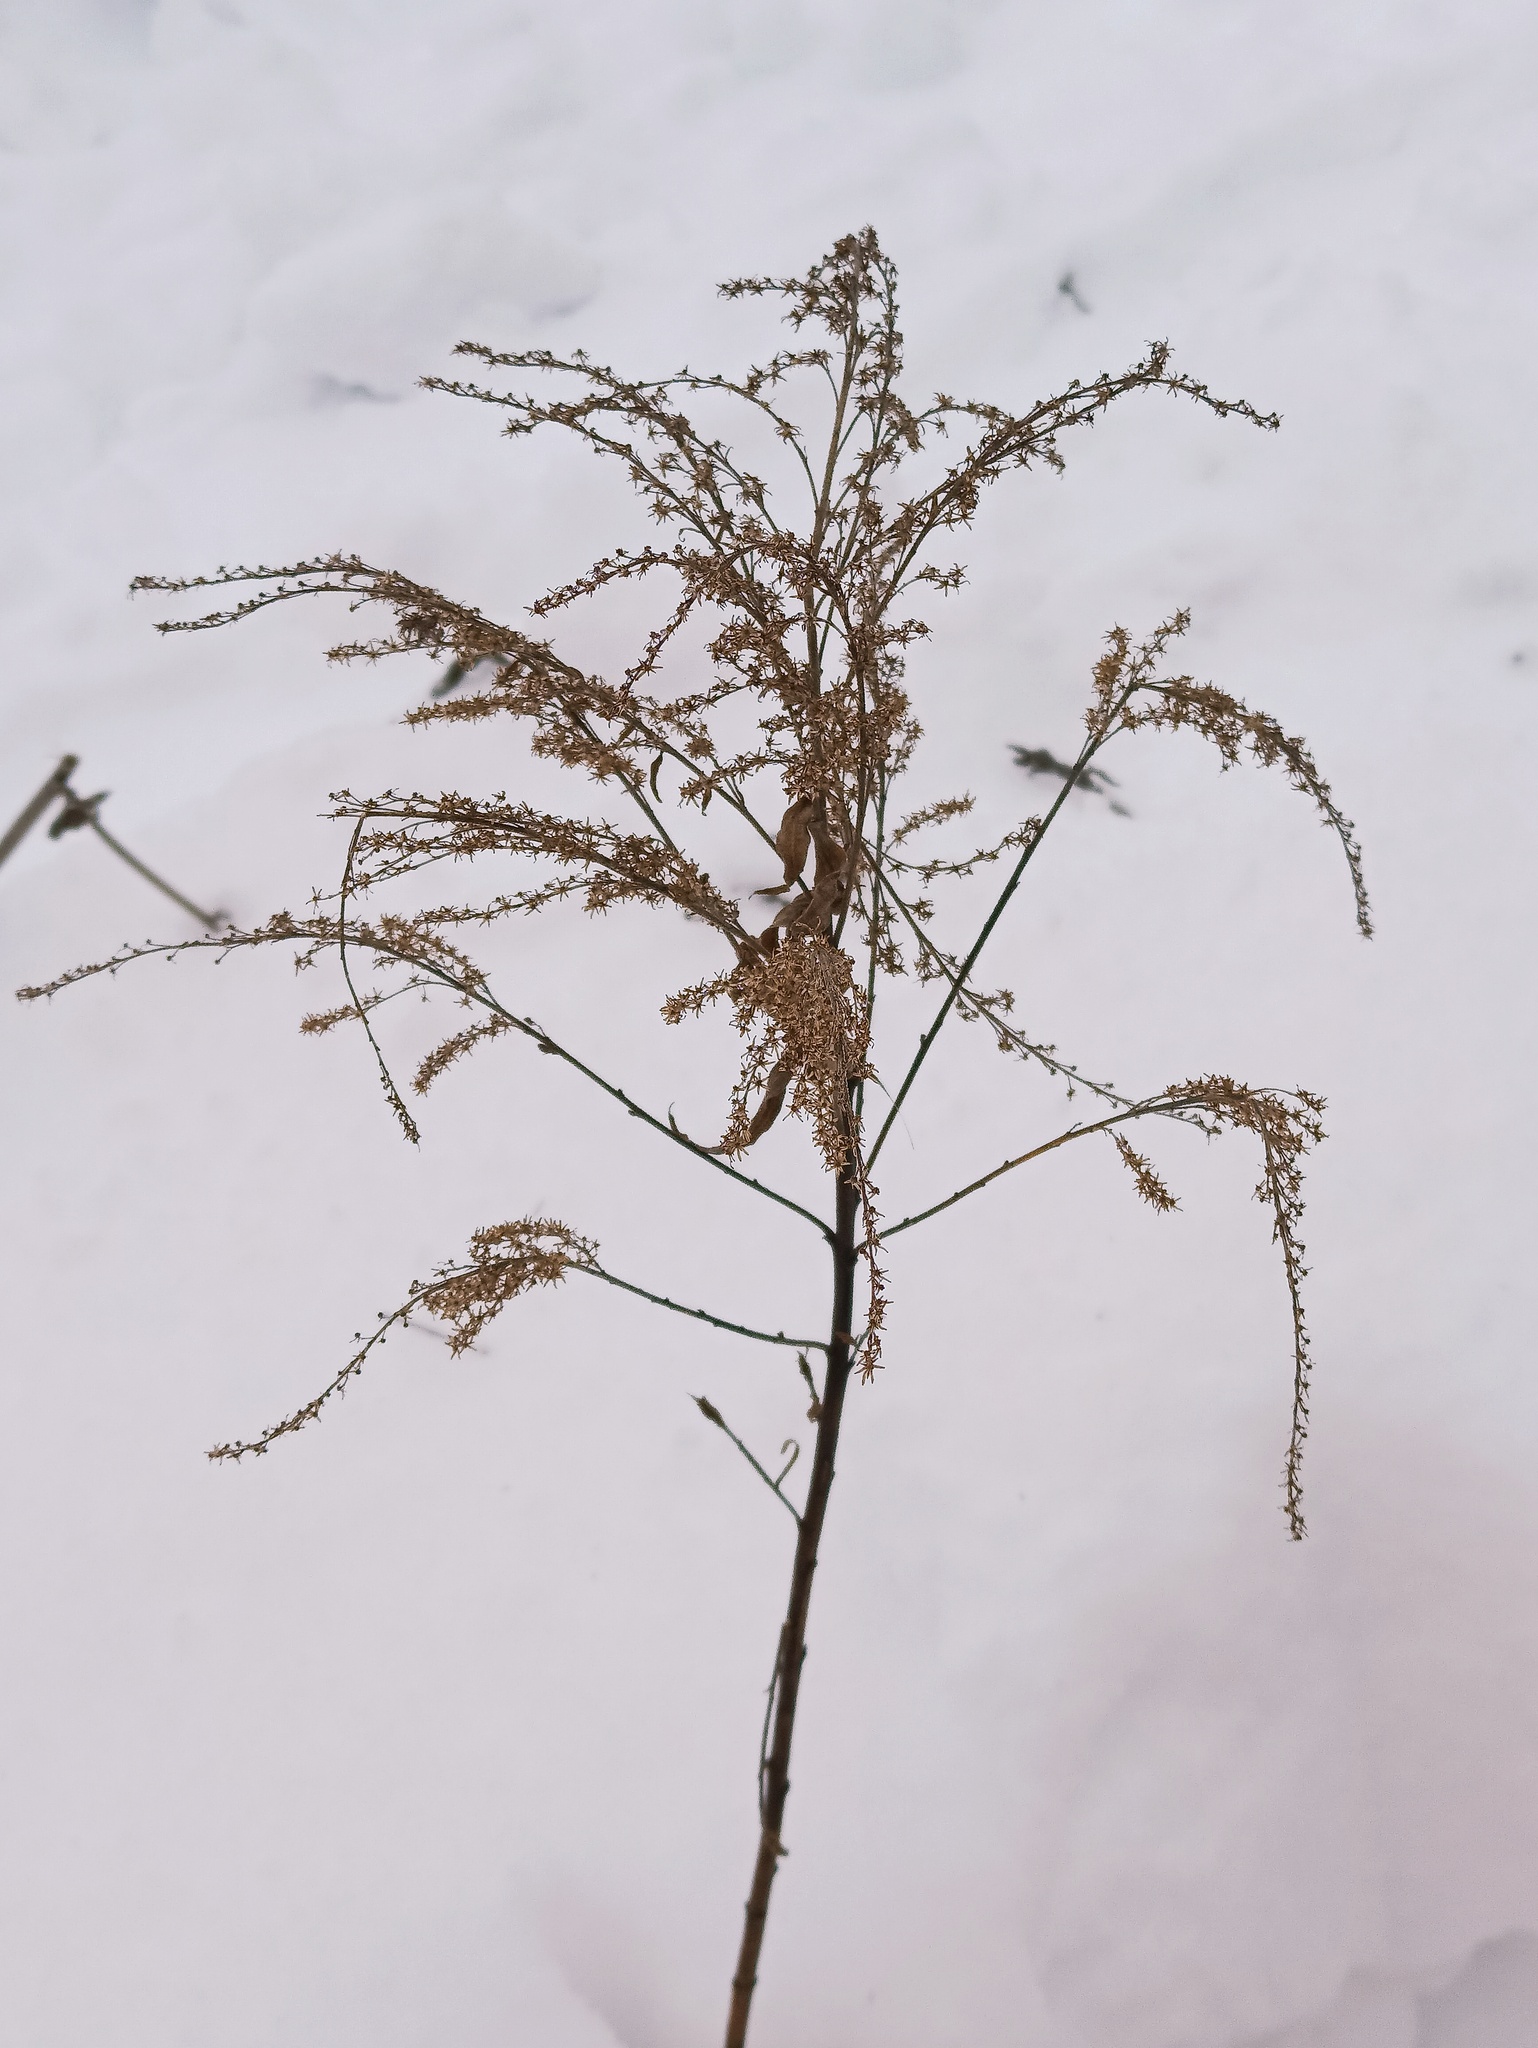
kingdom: Plantae
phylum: Tracheophyta
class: Magnoliopsida
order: Asterales
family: Asteraceae
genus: Solidago
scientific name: Solidago canadensis
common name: Canada goldenrod
